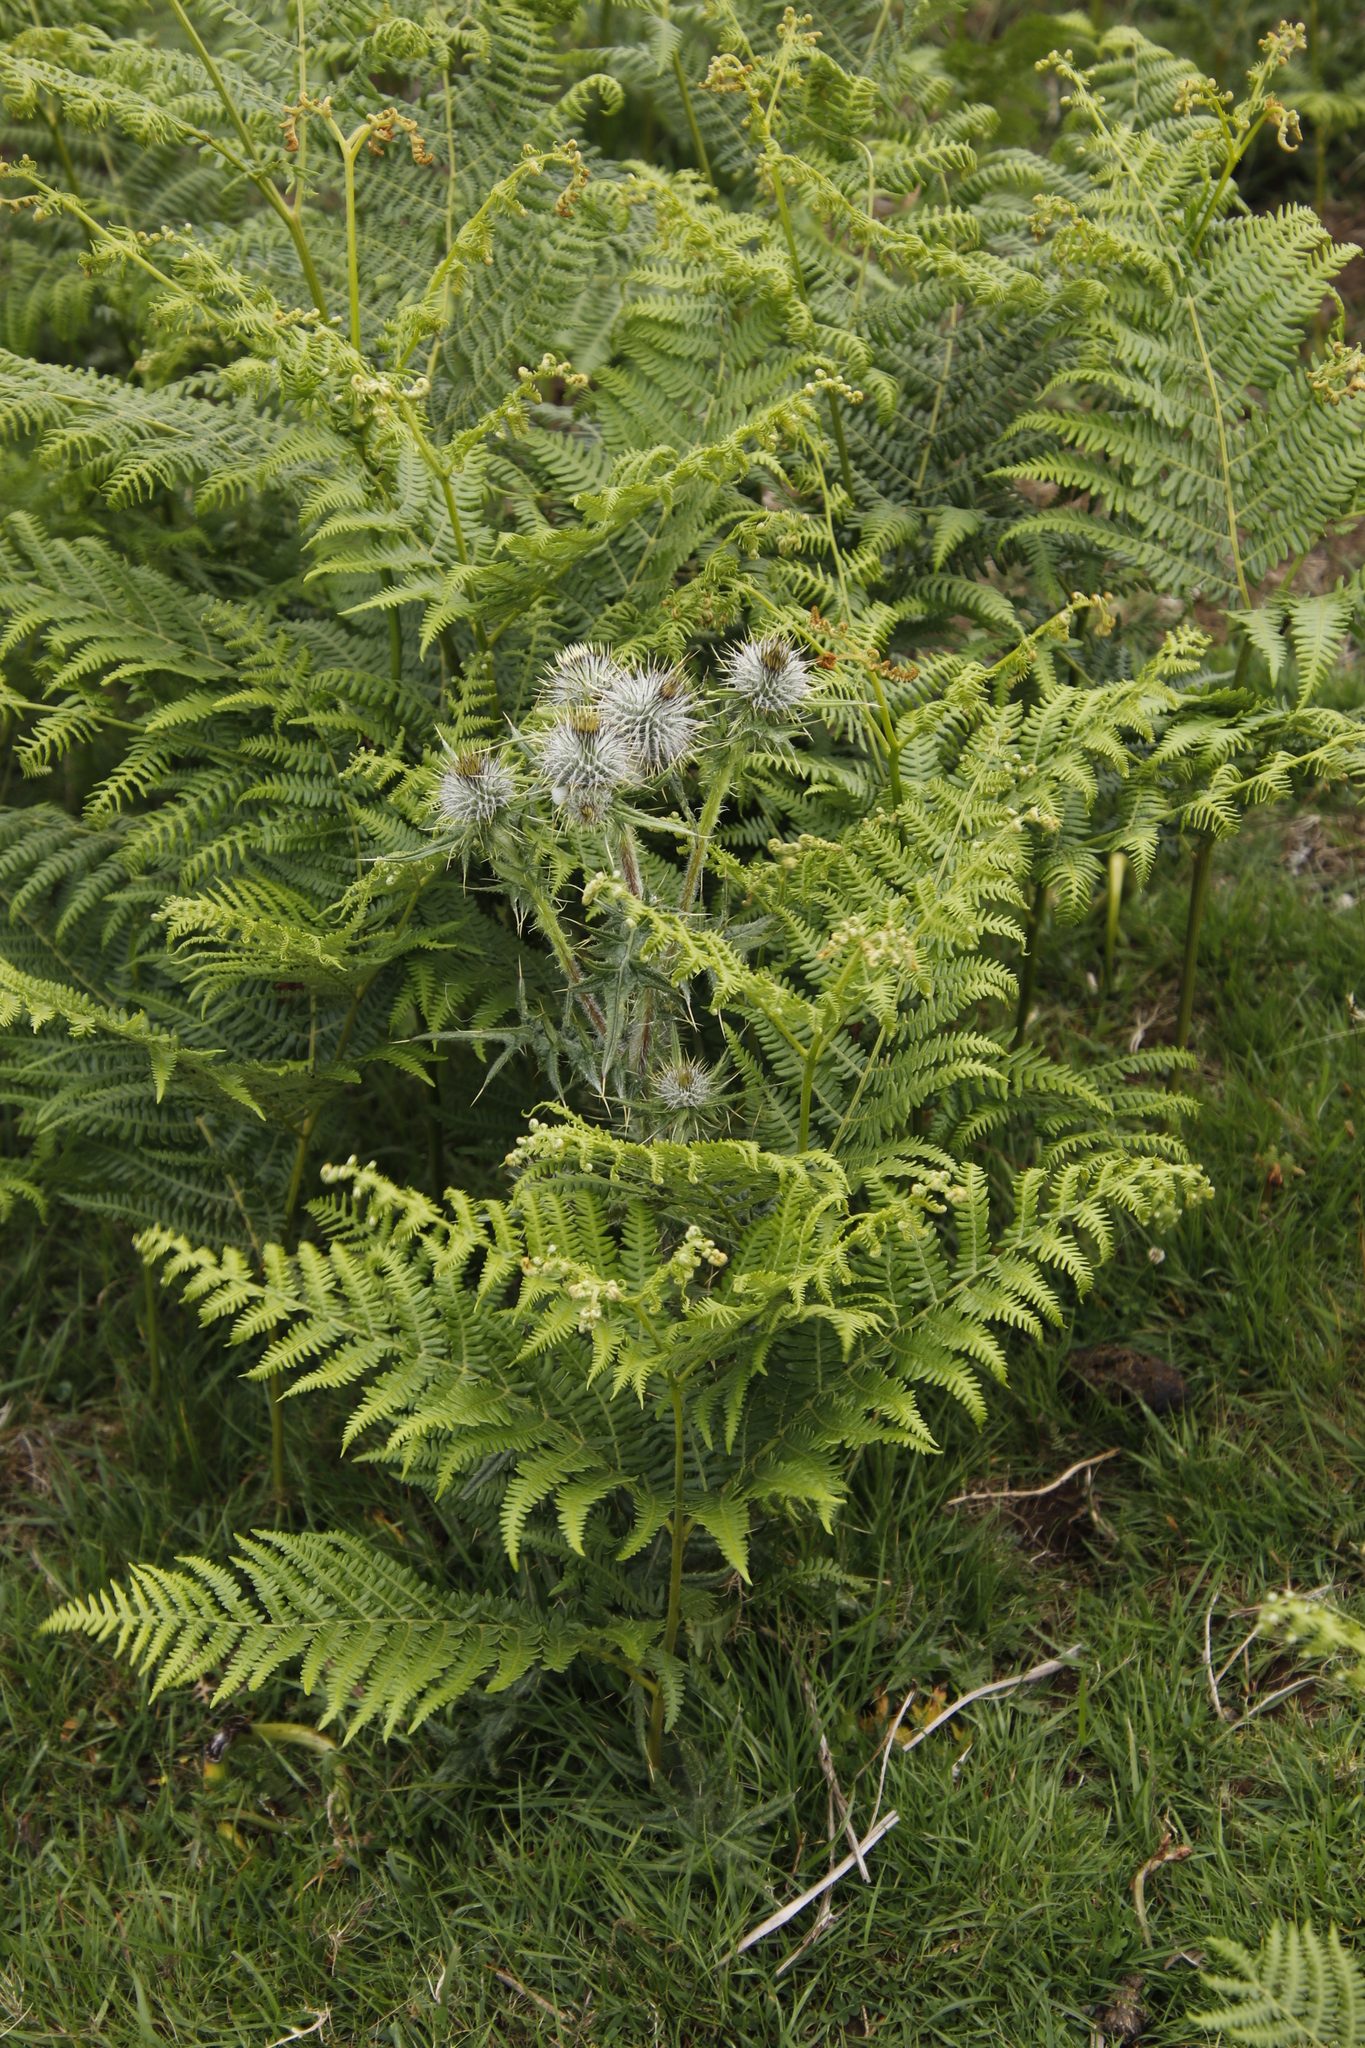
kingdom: Plantae
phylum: Tracheophyta
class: Polypodiopsida
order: Polypodiales
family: Dennstaedtiaceae
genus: Pteridium
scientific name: Pteridium aquilinum
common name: Bracken
